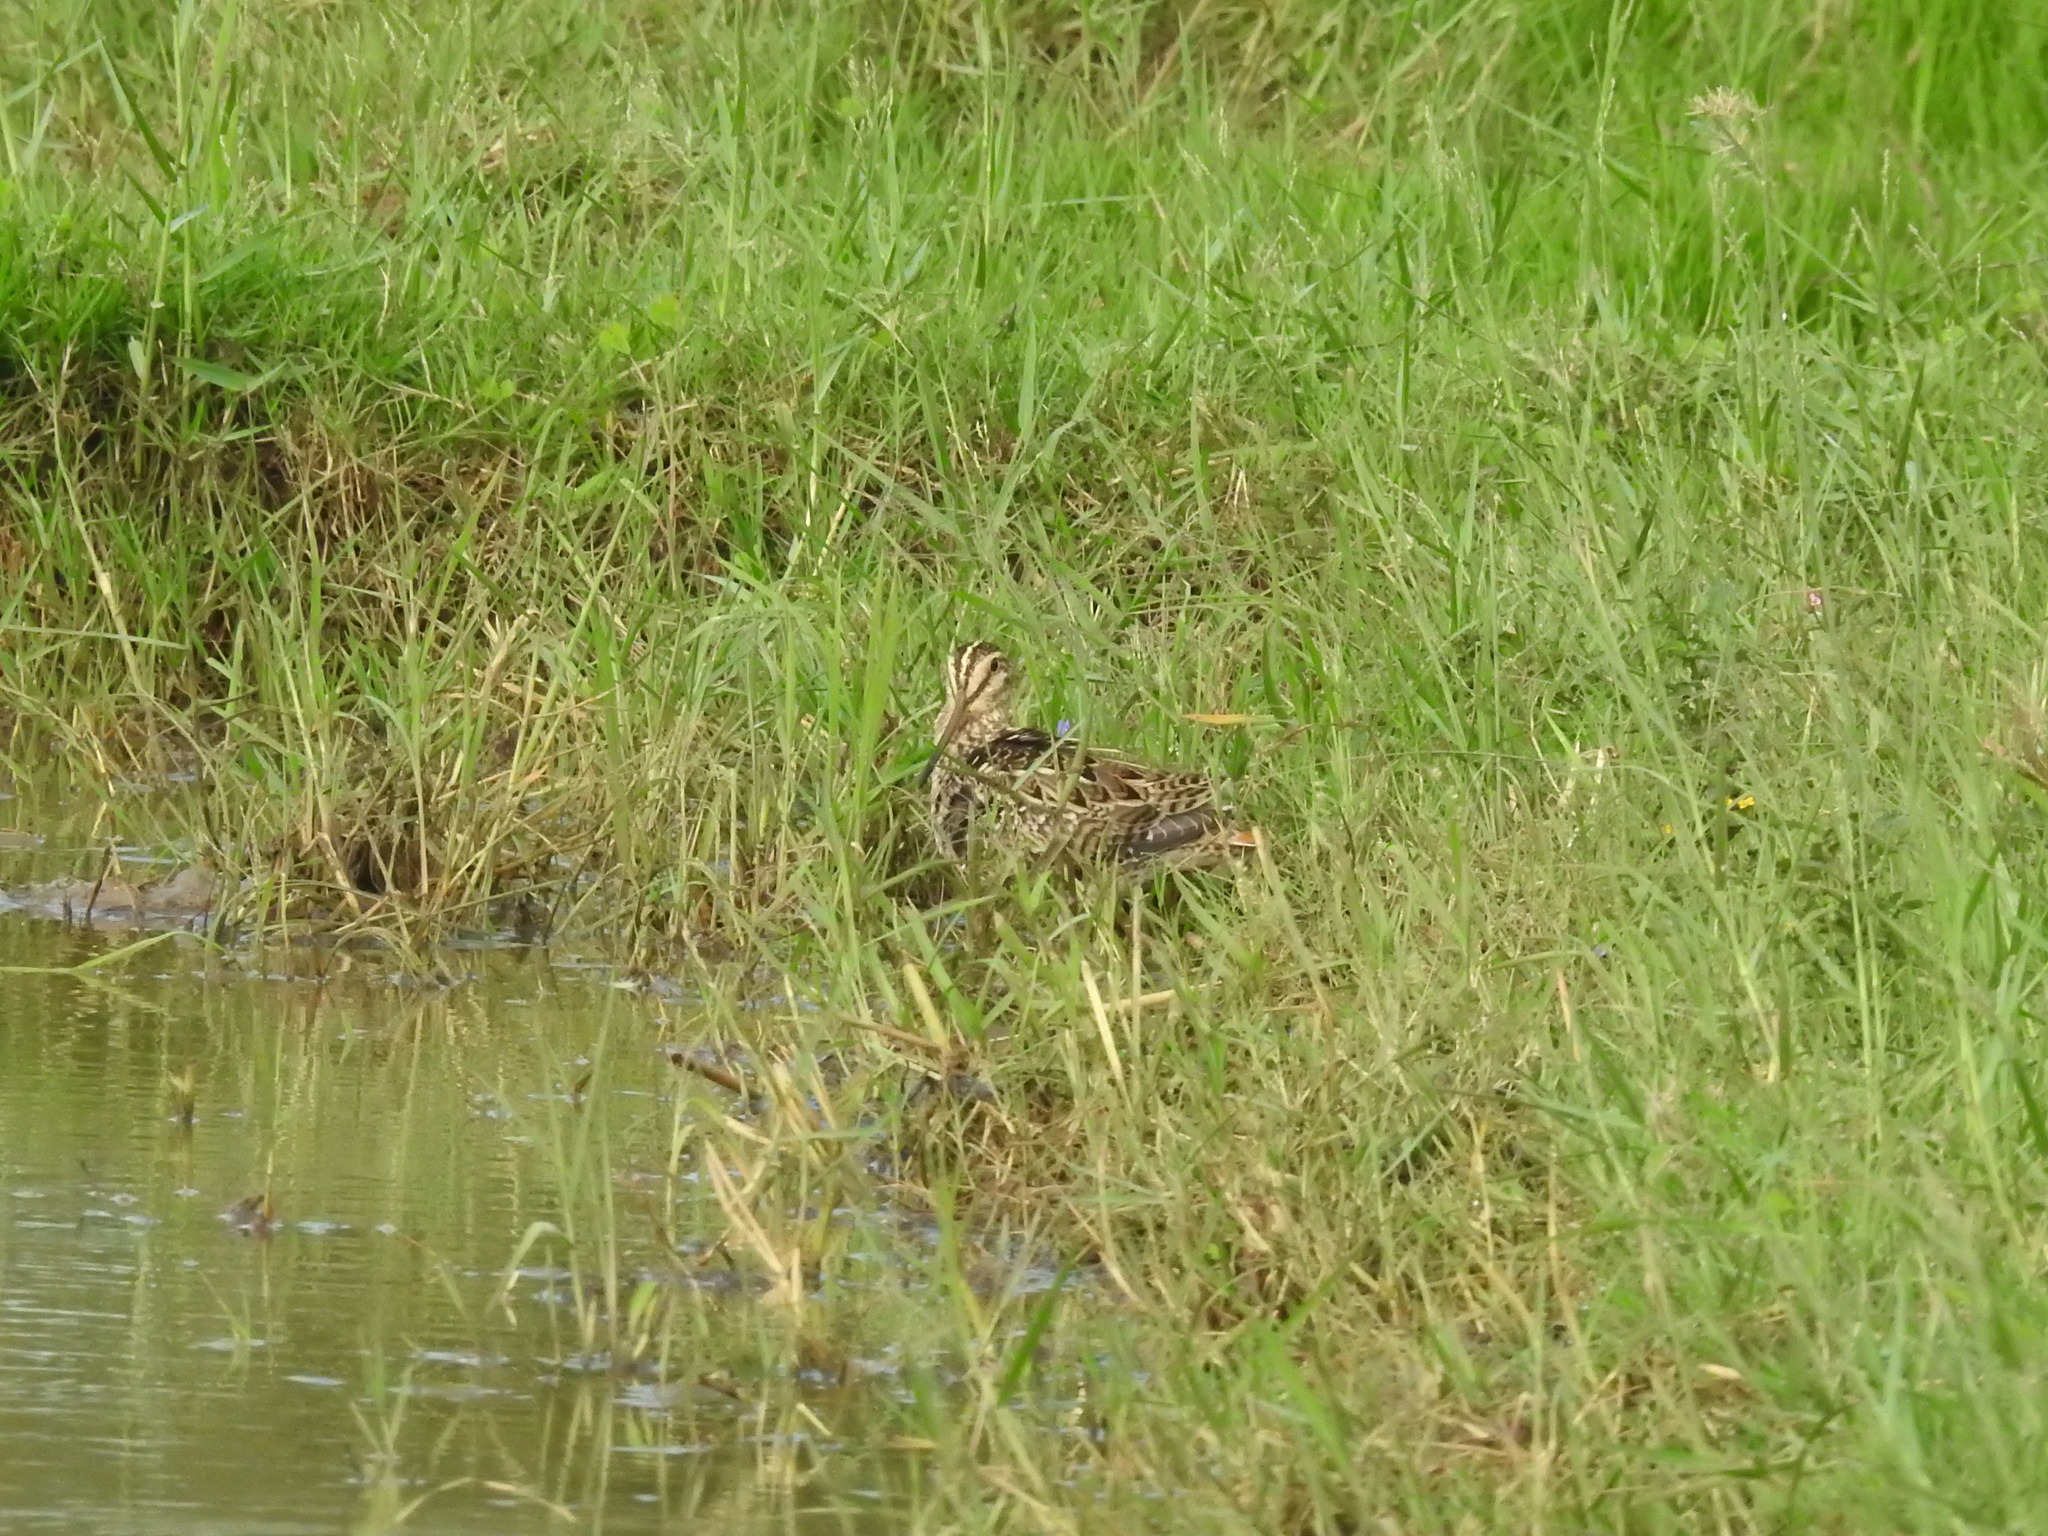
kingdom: Animalia
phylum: Chordata
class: Aves
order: Charadriiformes
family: Scolopacidae
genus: Gallinago
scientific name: Gallinago stenura
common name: Pin-tailed snipe
